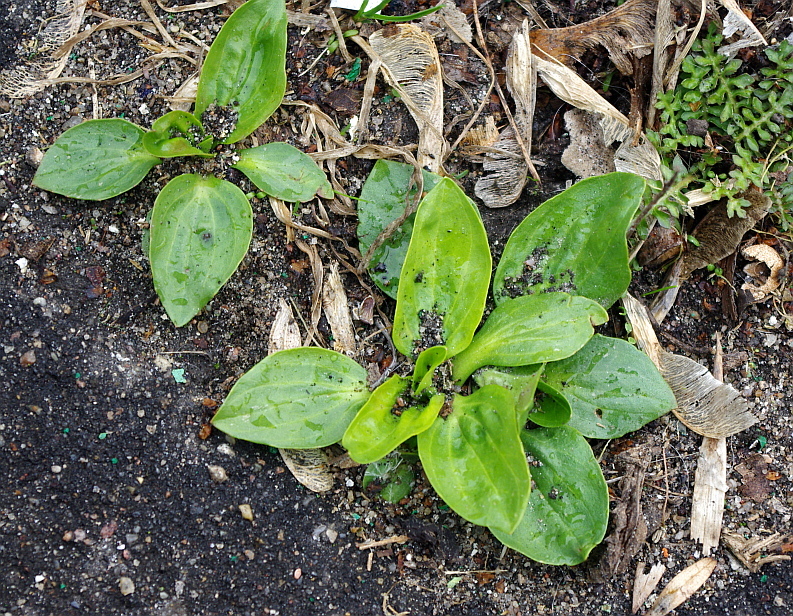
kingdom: Plantae
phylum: Tracheophyta
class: Magnoliopsida
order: Lamiales
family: Plantaginaceae
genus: Plantago
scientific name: Plantago major
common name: Common plantain
